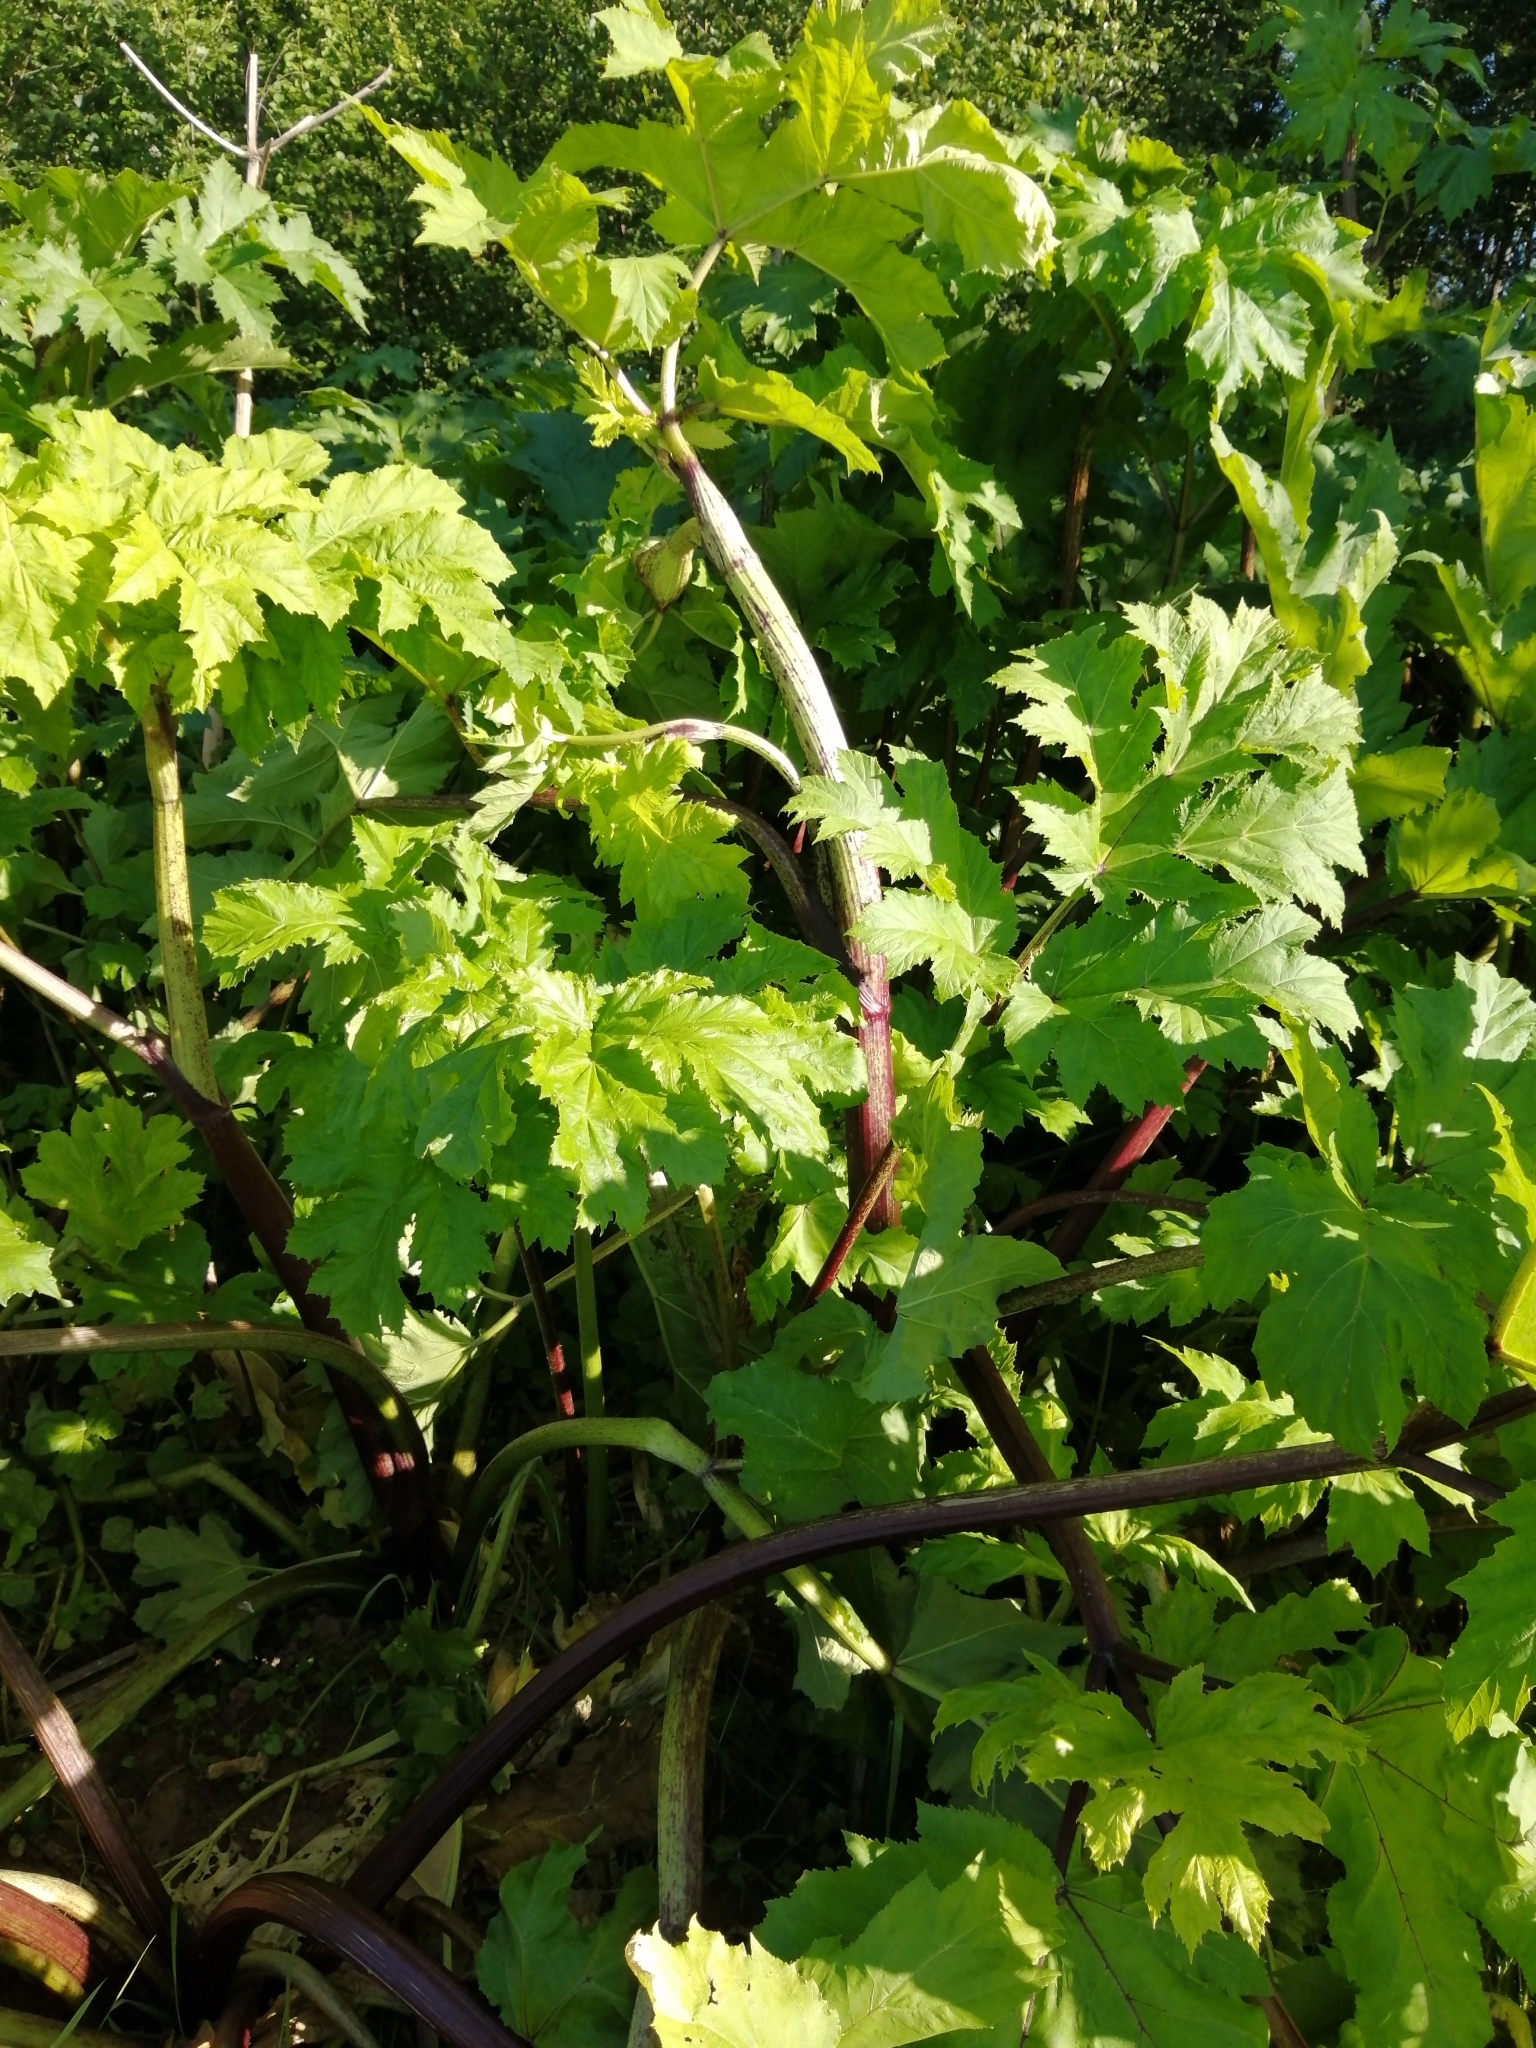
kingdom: Plantae
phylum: Tracheophyta
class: Magnoliopsida
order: Apiales
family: Apiaceae
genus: Heracleum
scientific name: Heracleum sosnowskyi
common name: Sosnowsky's hogweed
